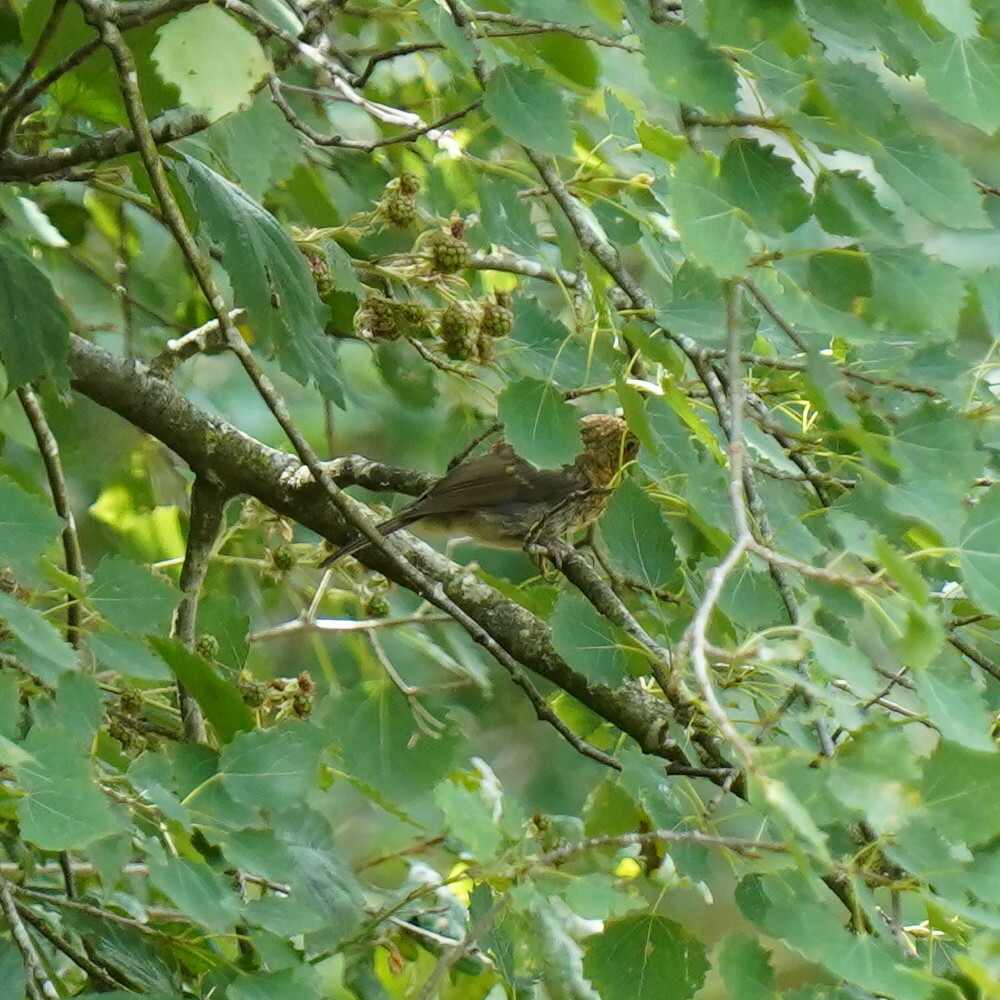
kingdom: Animalia
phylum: Chordata
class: Aves
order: Passeriformes
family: Muscicapidae
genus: Erithacus
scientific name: Erithacus rubecula
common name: European robin
